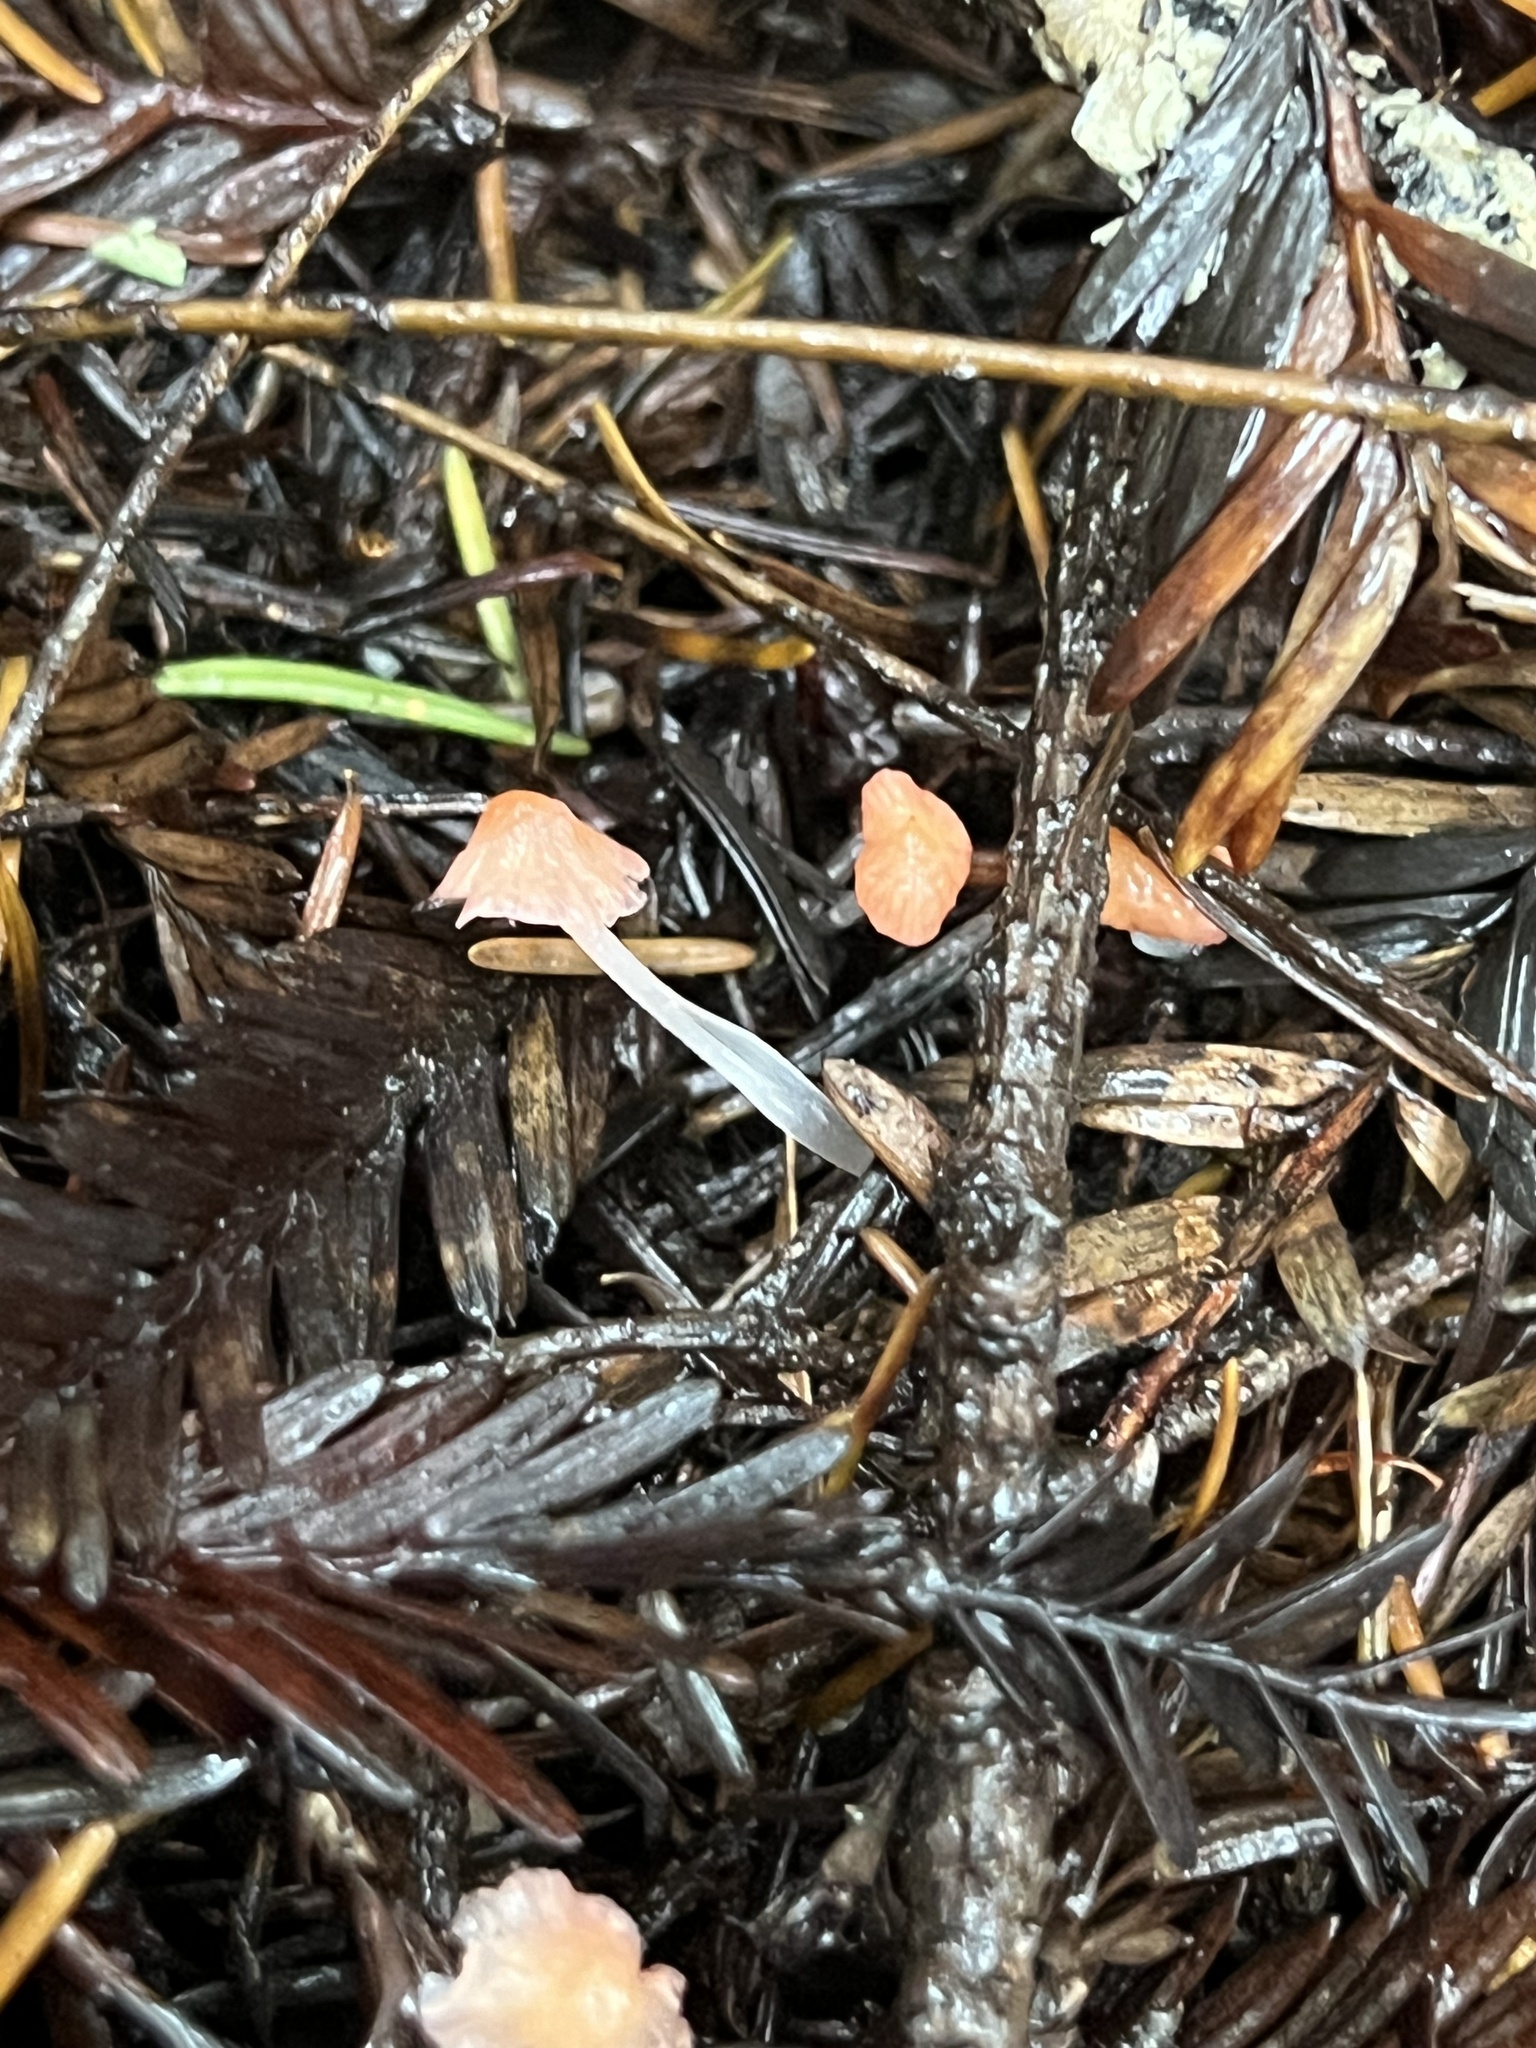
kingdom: Fungi
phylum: Basidiomycota
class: Agaricomycetes
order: Agaricales
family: Mycenaceae
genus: Atheniella
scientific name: Atheniella adonis
